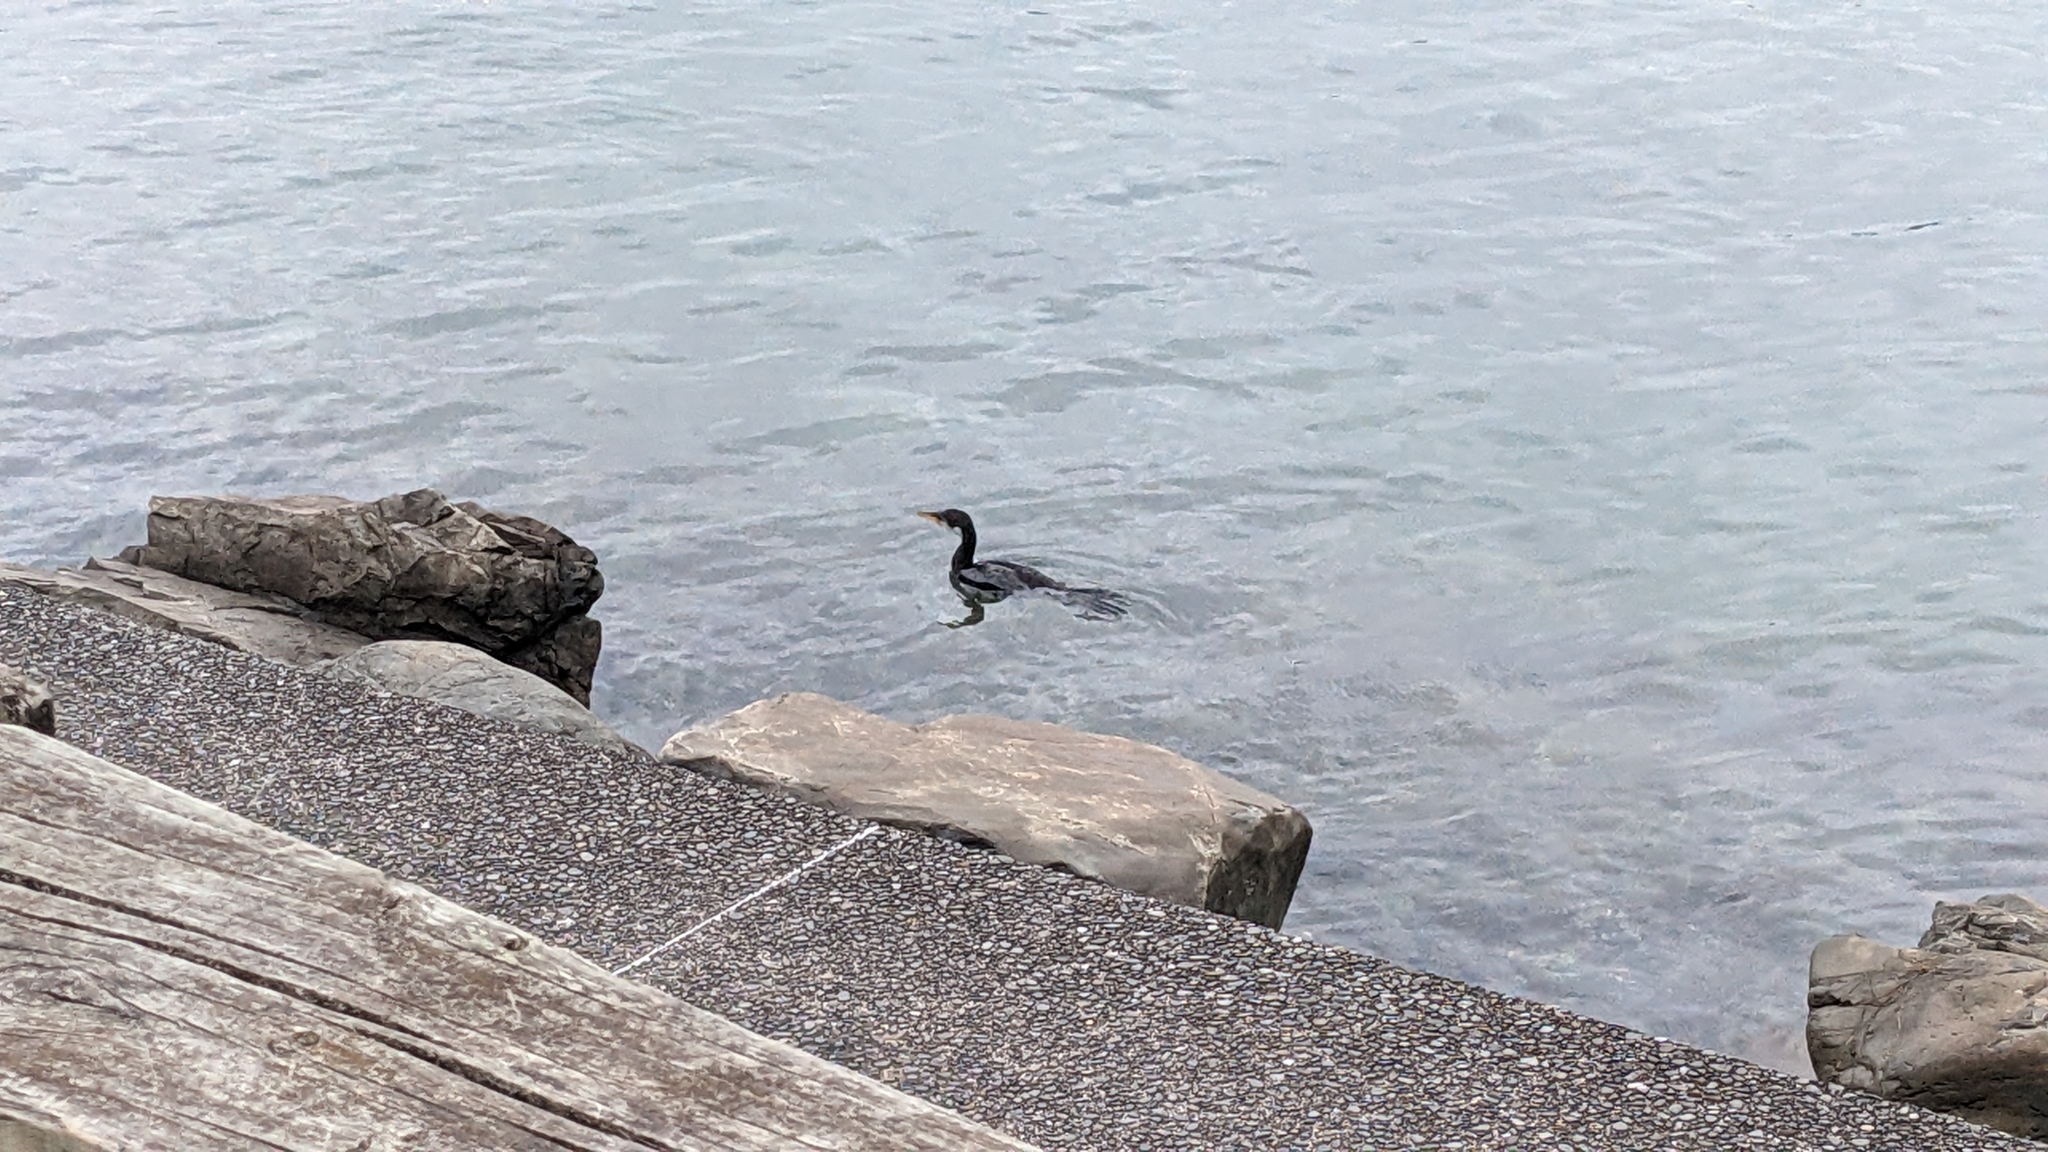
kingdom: Animalia
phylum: Chordata
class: Aves
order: Suliformes
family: Phalacrocoracidae
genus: Microcarbo
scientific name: Microcarbo melanoleucos
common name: Little pied cormorant
